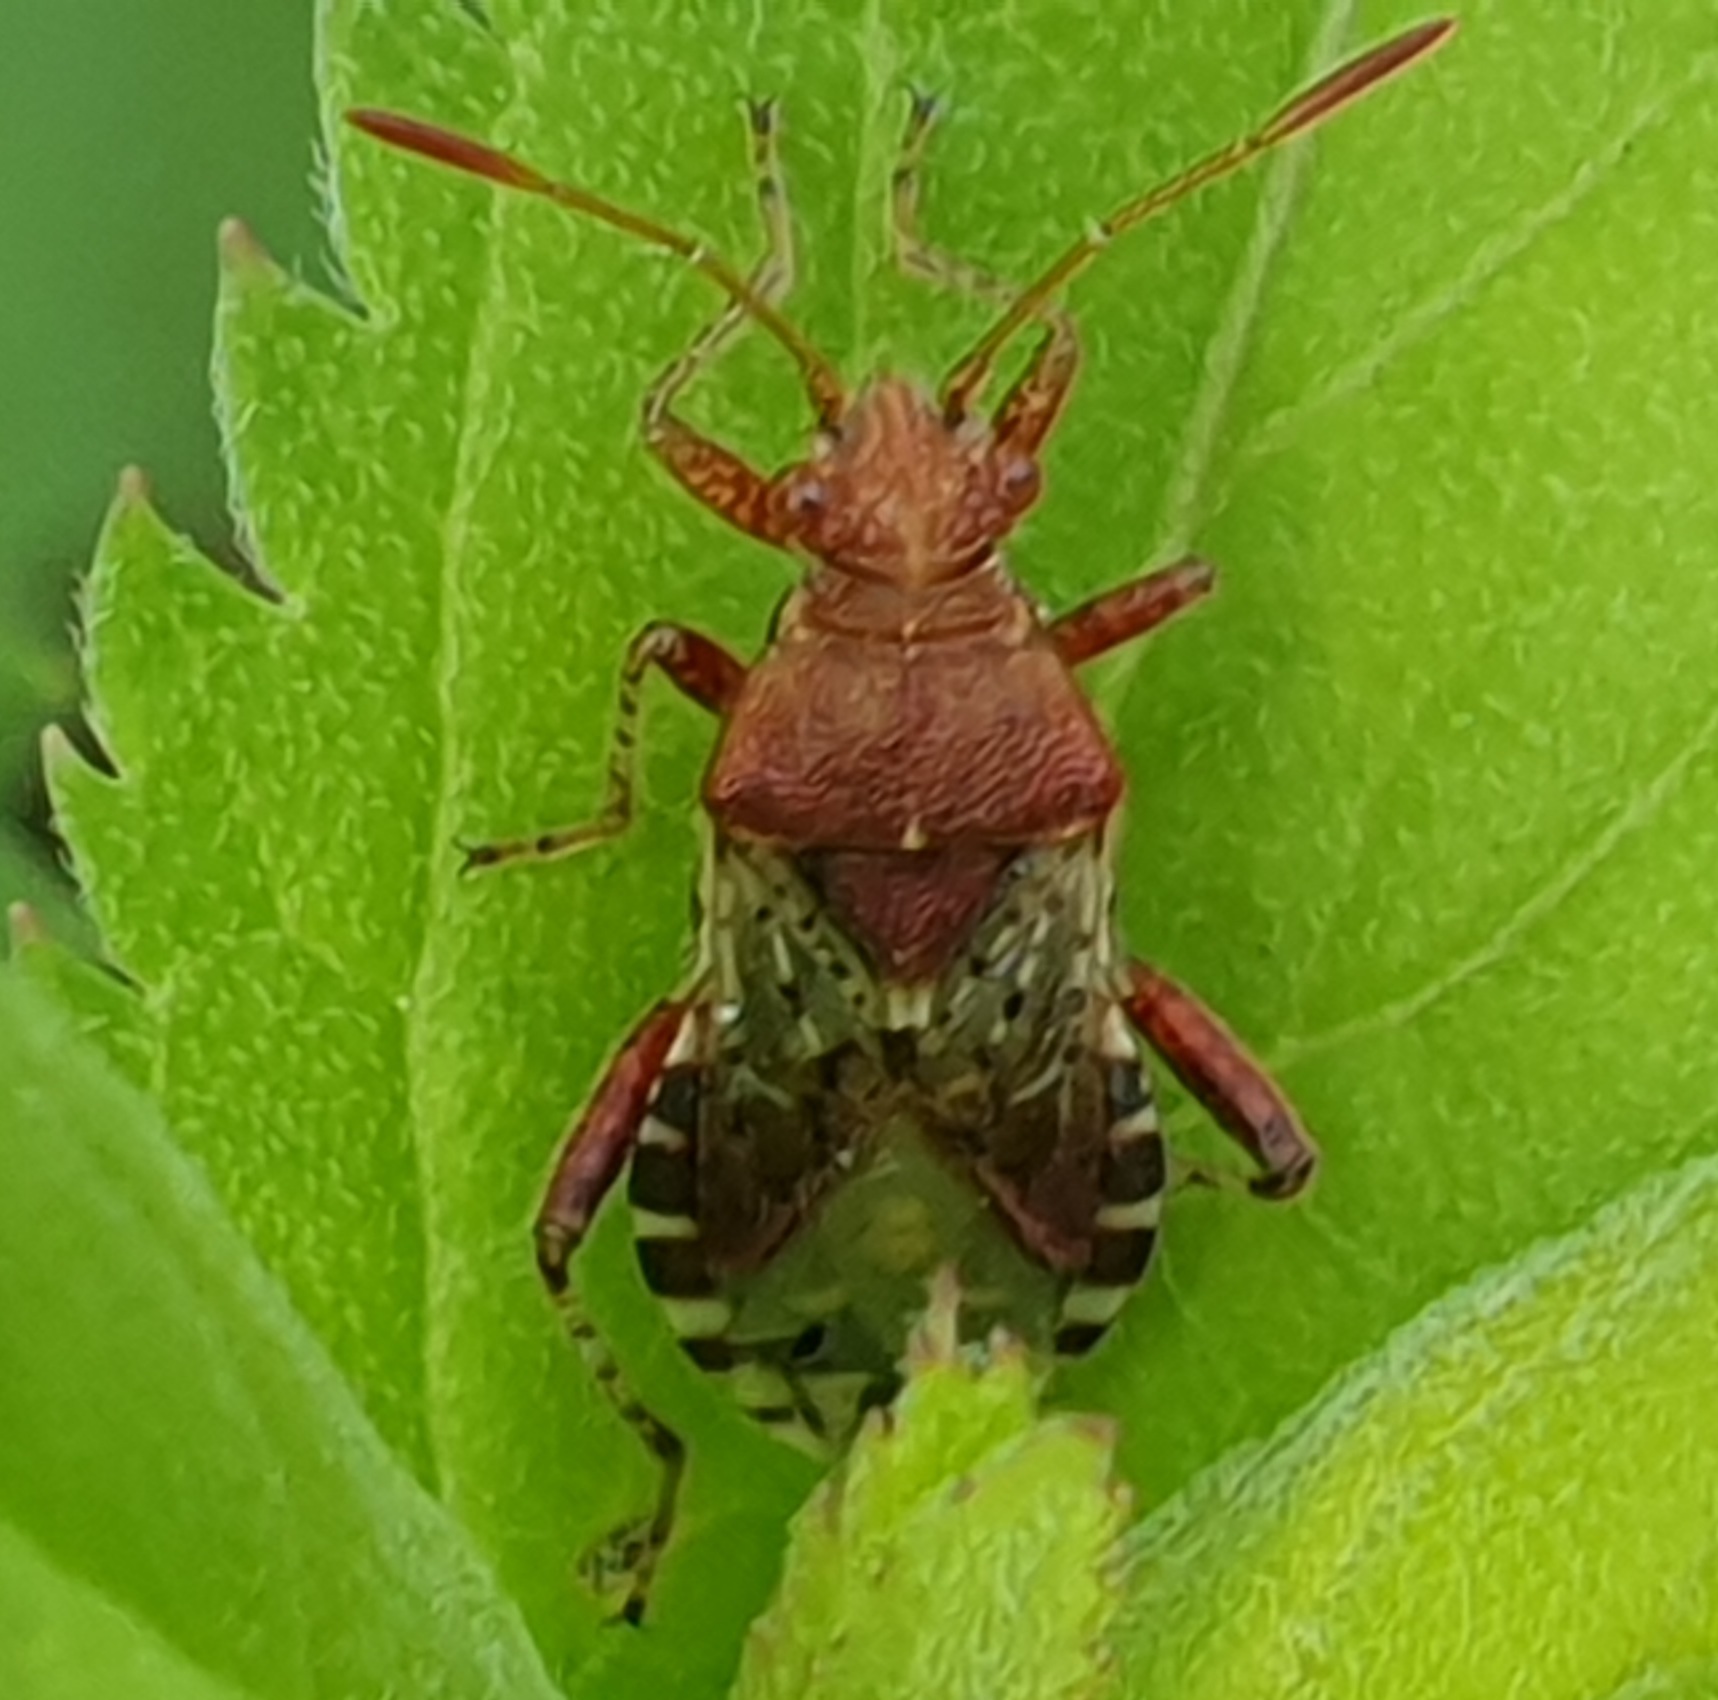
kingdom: Animalia
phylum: Arthropoda
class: Insecta
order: Hemiptera
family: Rhopalidae
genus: Rhopalus
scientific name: Rhopalus subrufus
